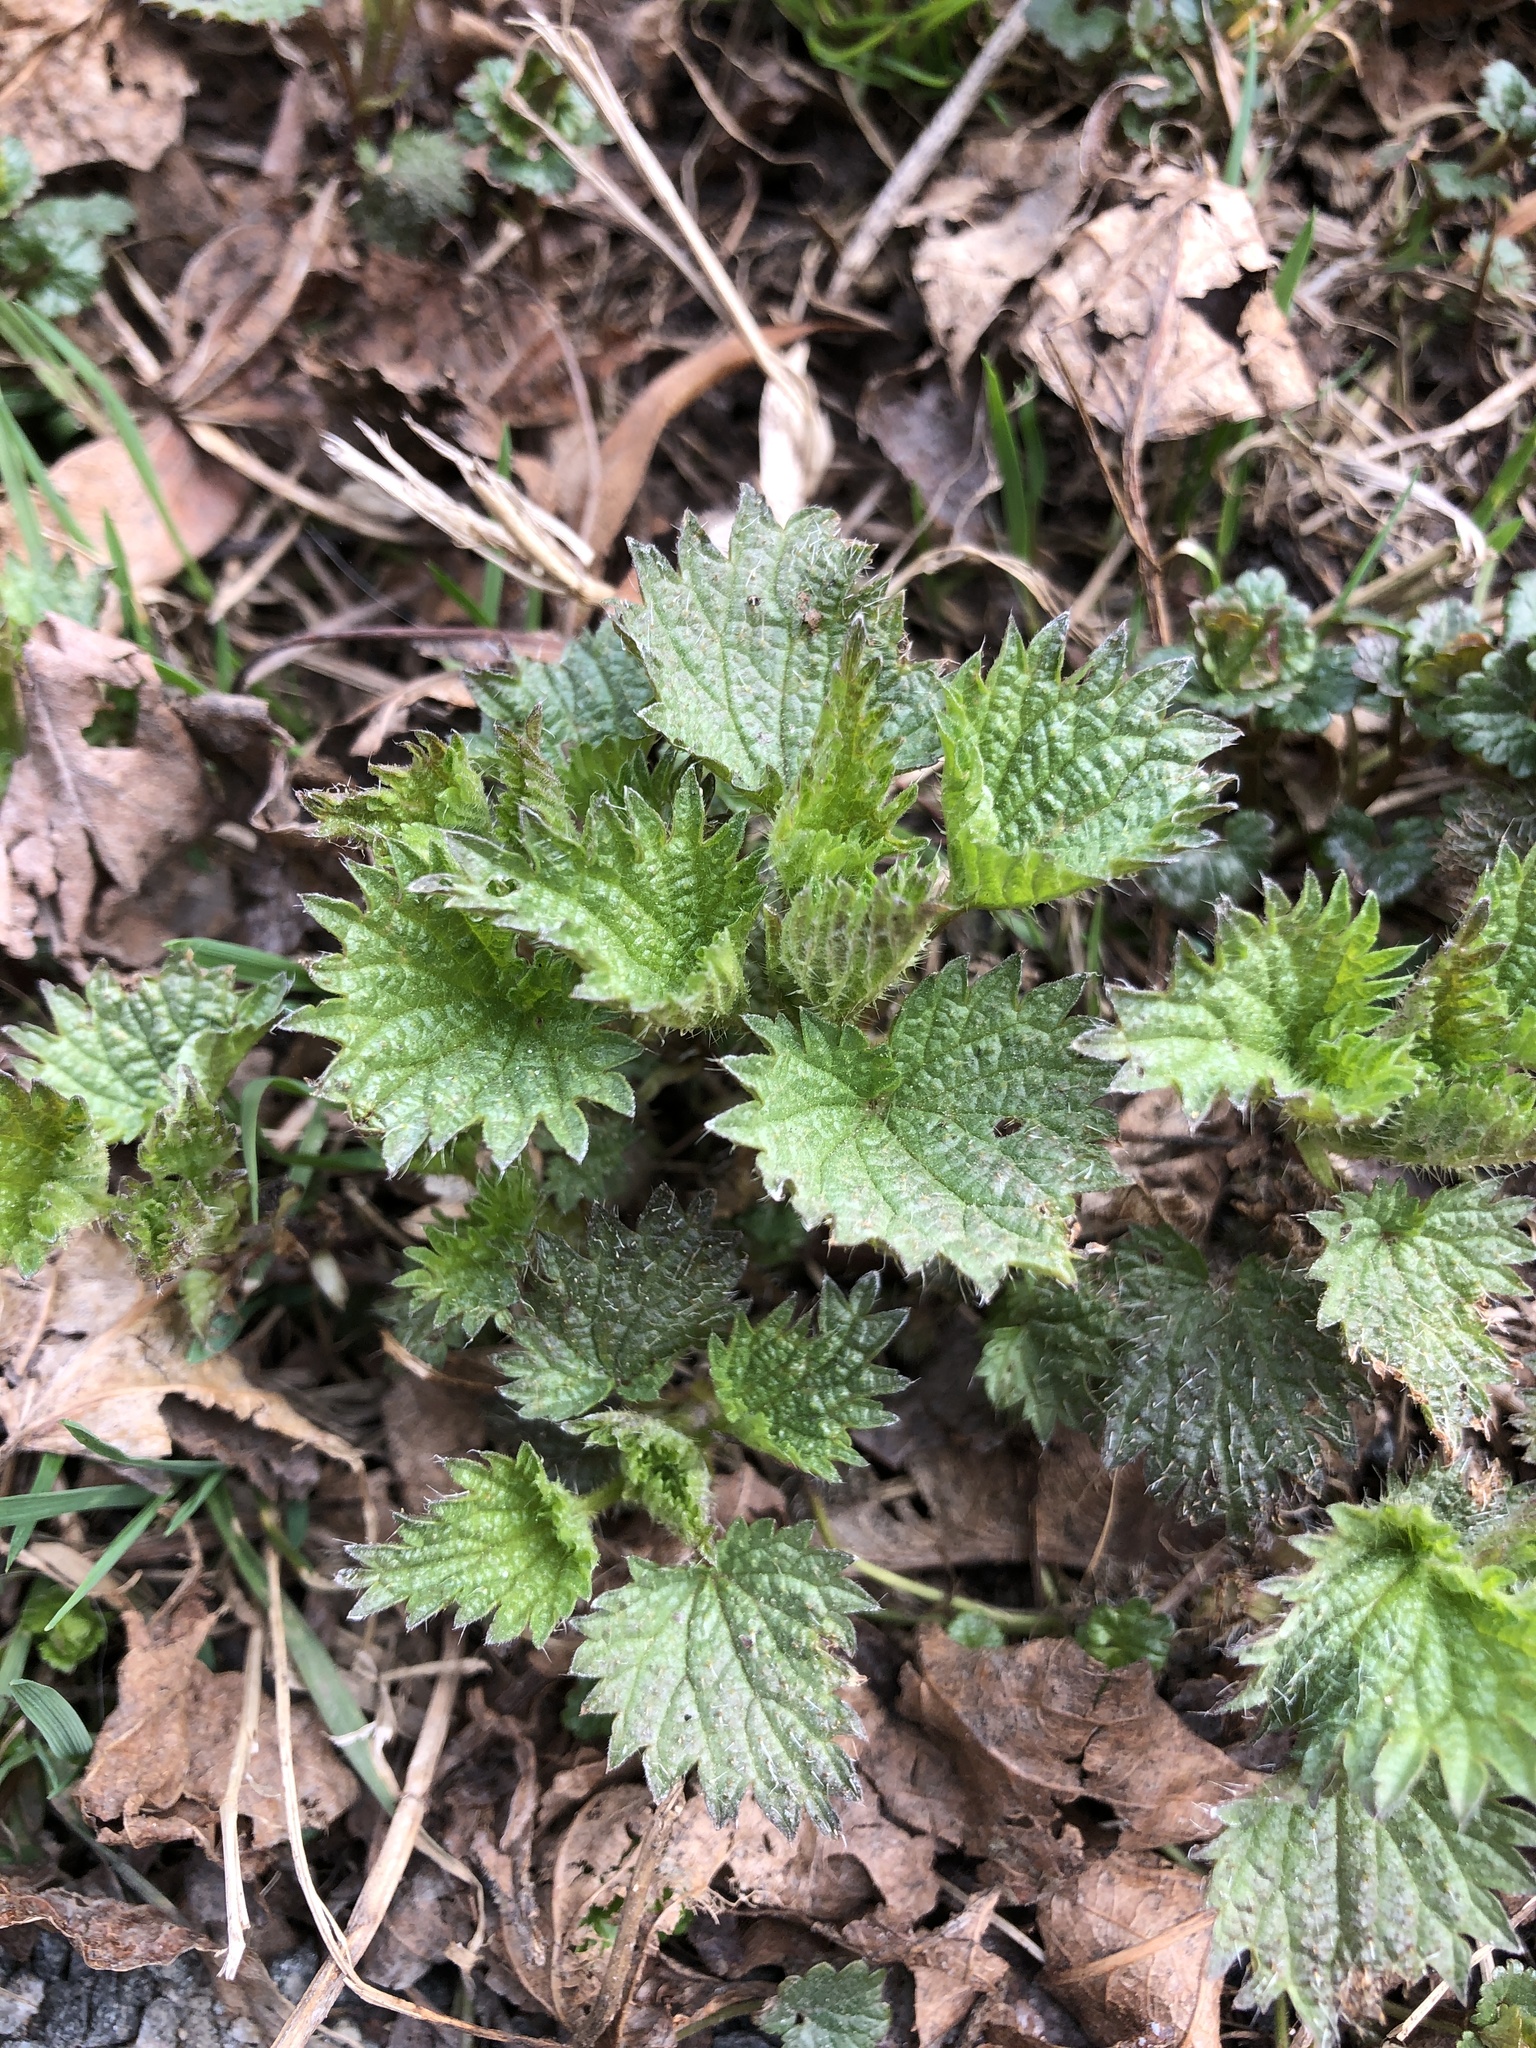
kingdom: Plantae
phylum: Tracheophyta
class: Magnoliopsida
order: Rosales
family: Urticaceae
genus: Urtica
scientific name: Urtica dioica
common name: Common nettle
